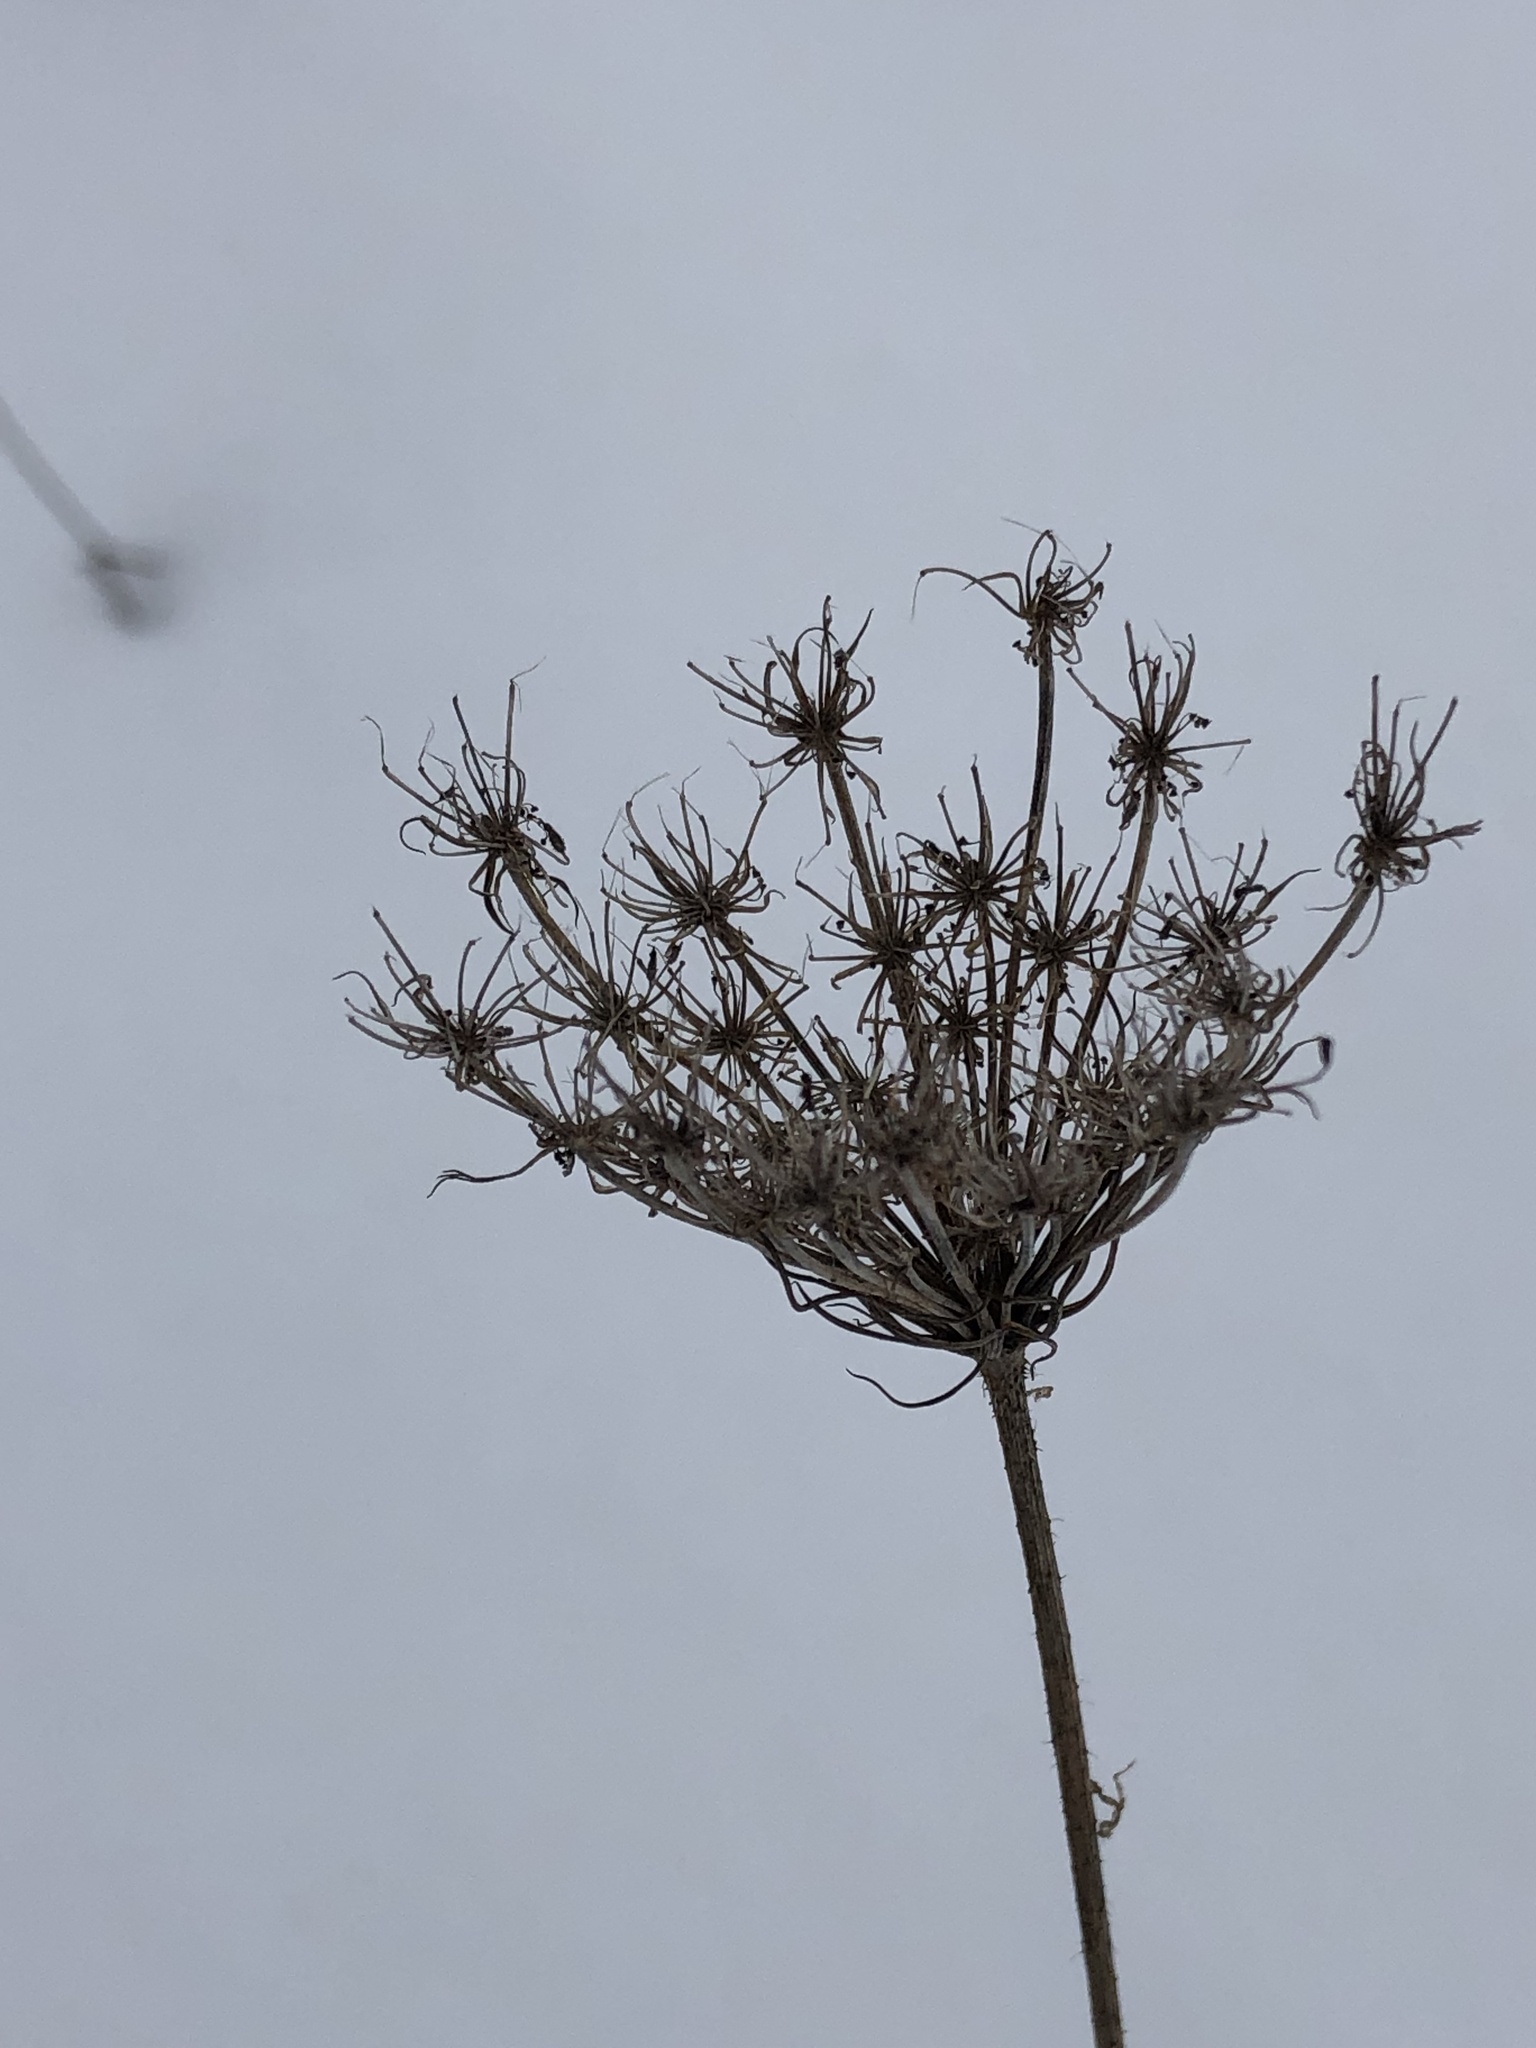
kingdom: Plantae
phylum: Tracheophyta
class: Magnoliopsida
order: Apiales
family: Apiaceae
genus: Daucus
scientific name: Daucus carota
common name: Wild carrot
